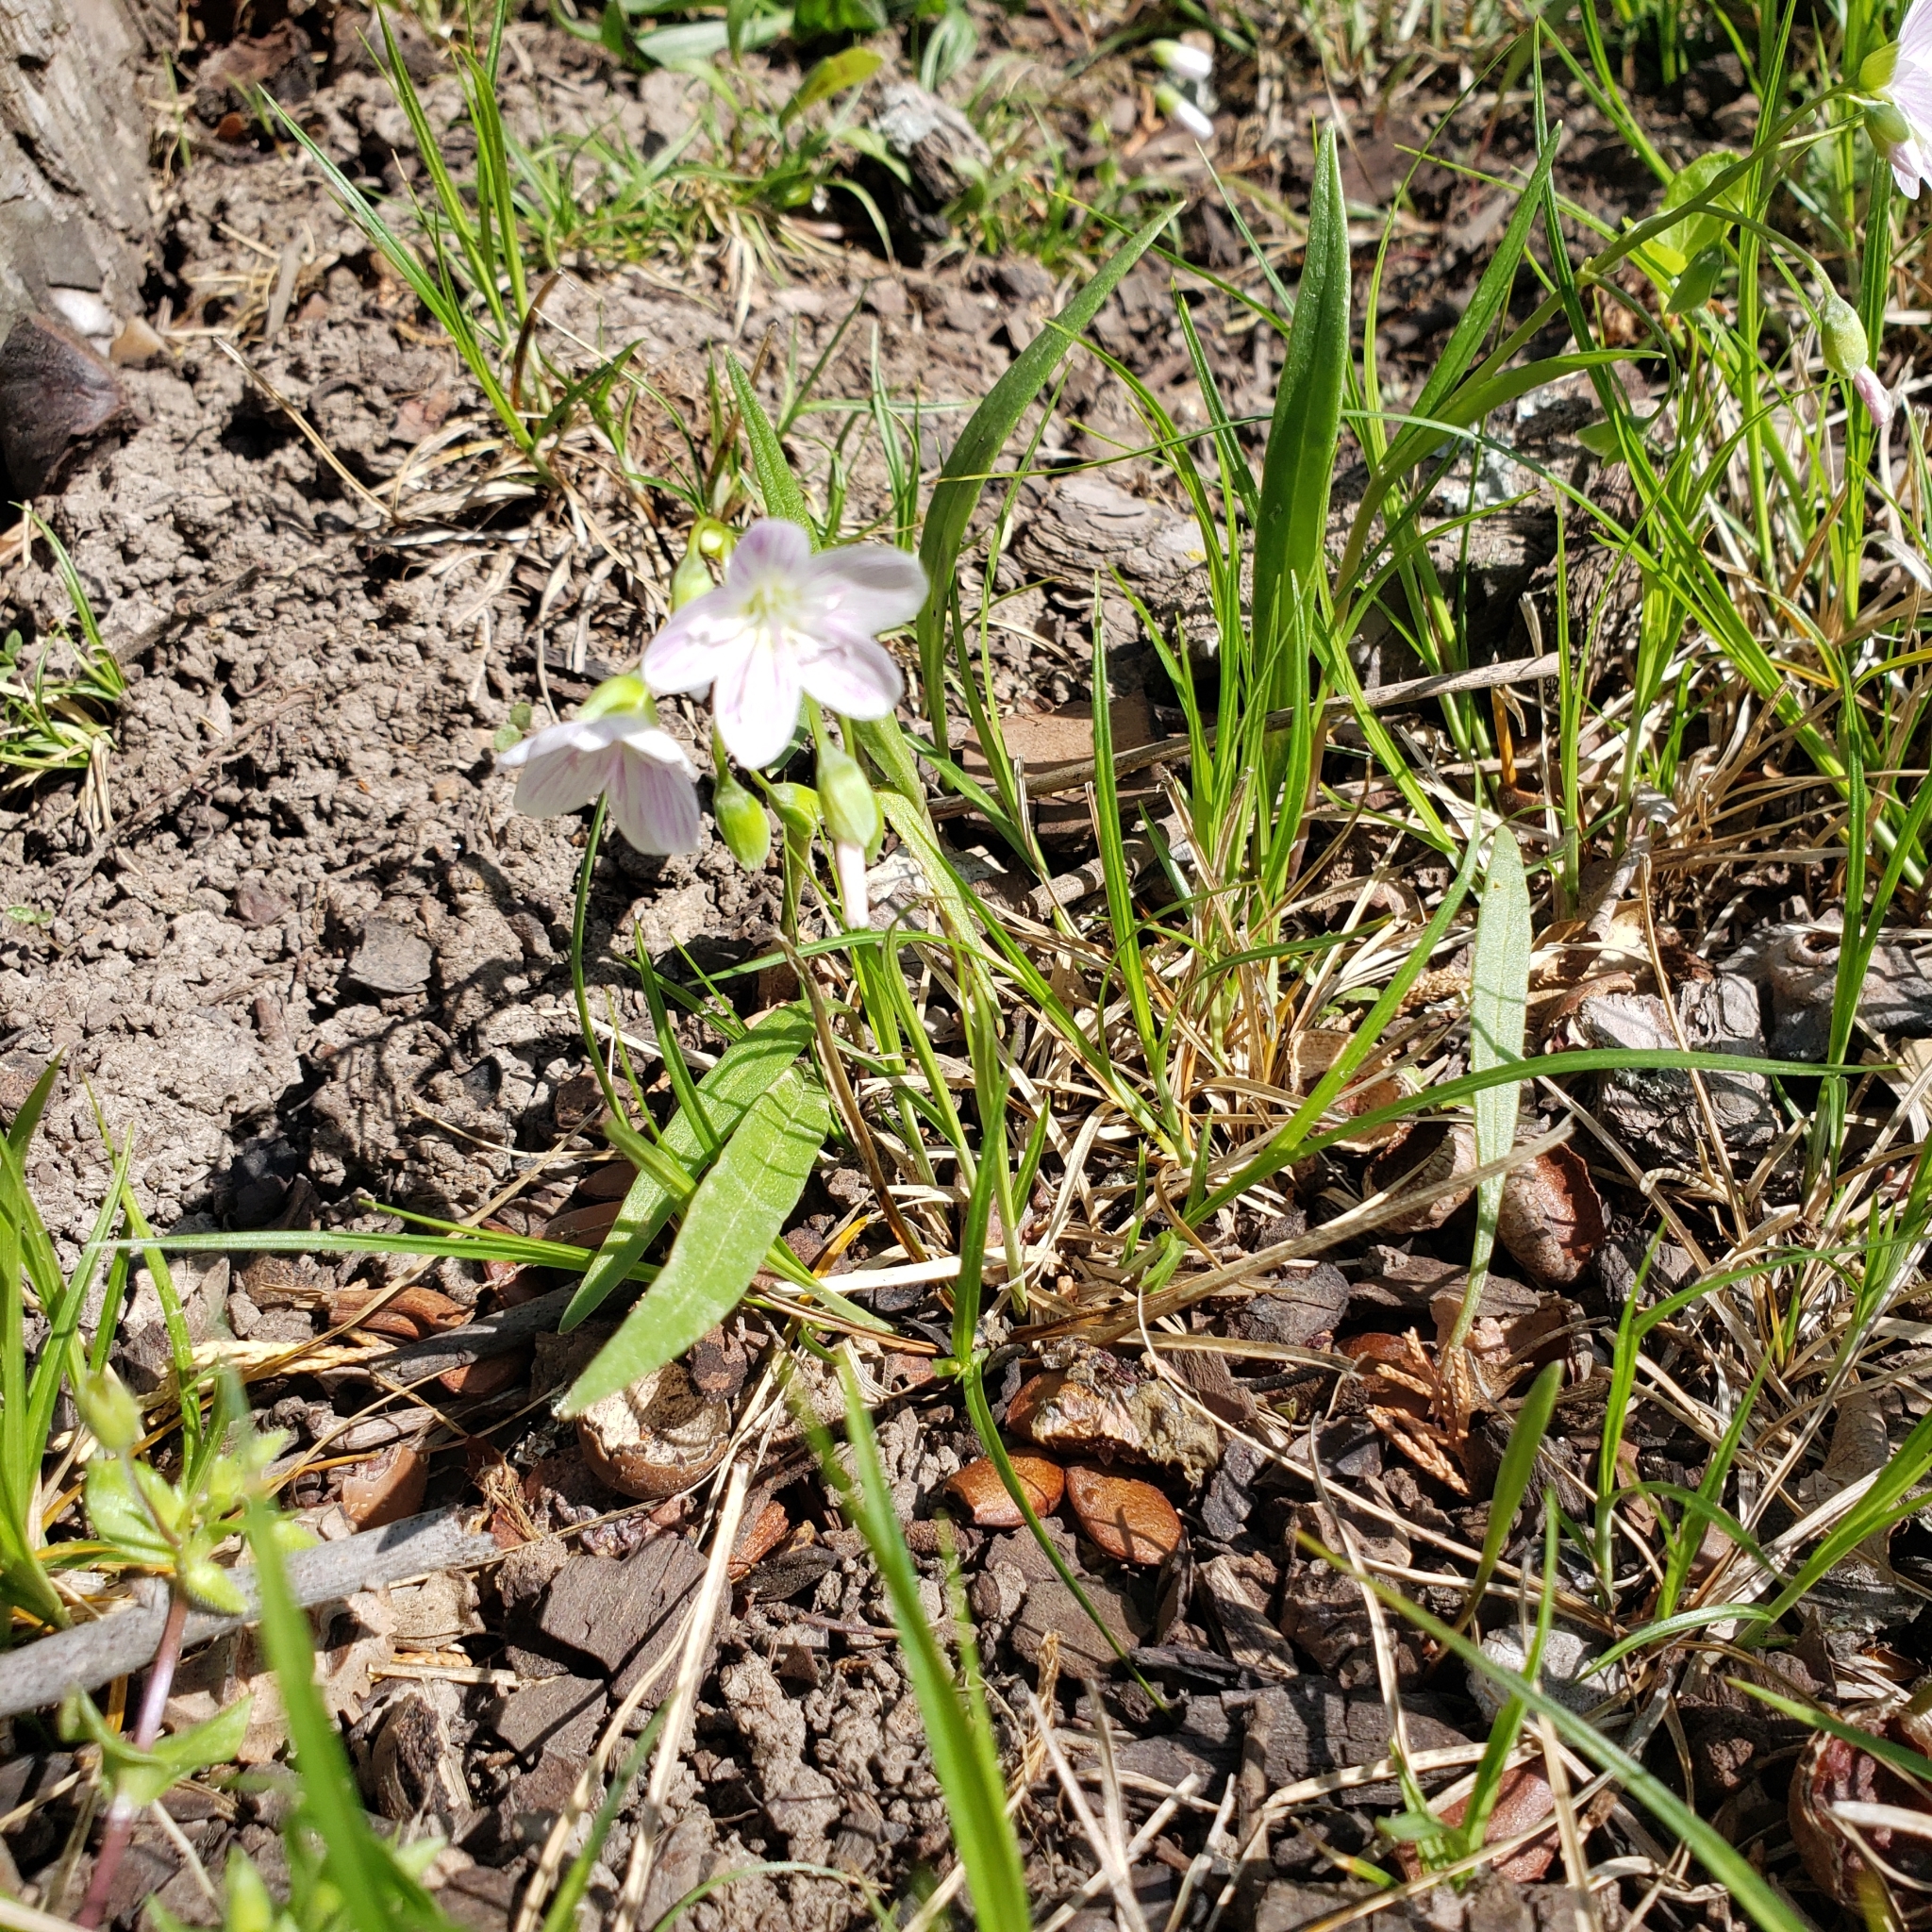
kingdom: Plantae
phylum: Tracheophyta
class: Magnoliopsida
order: Caryophyllales
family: Montiaceae
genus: Claytonia
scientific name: Claytonia virginica
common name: Virginia springbeauty
